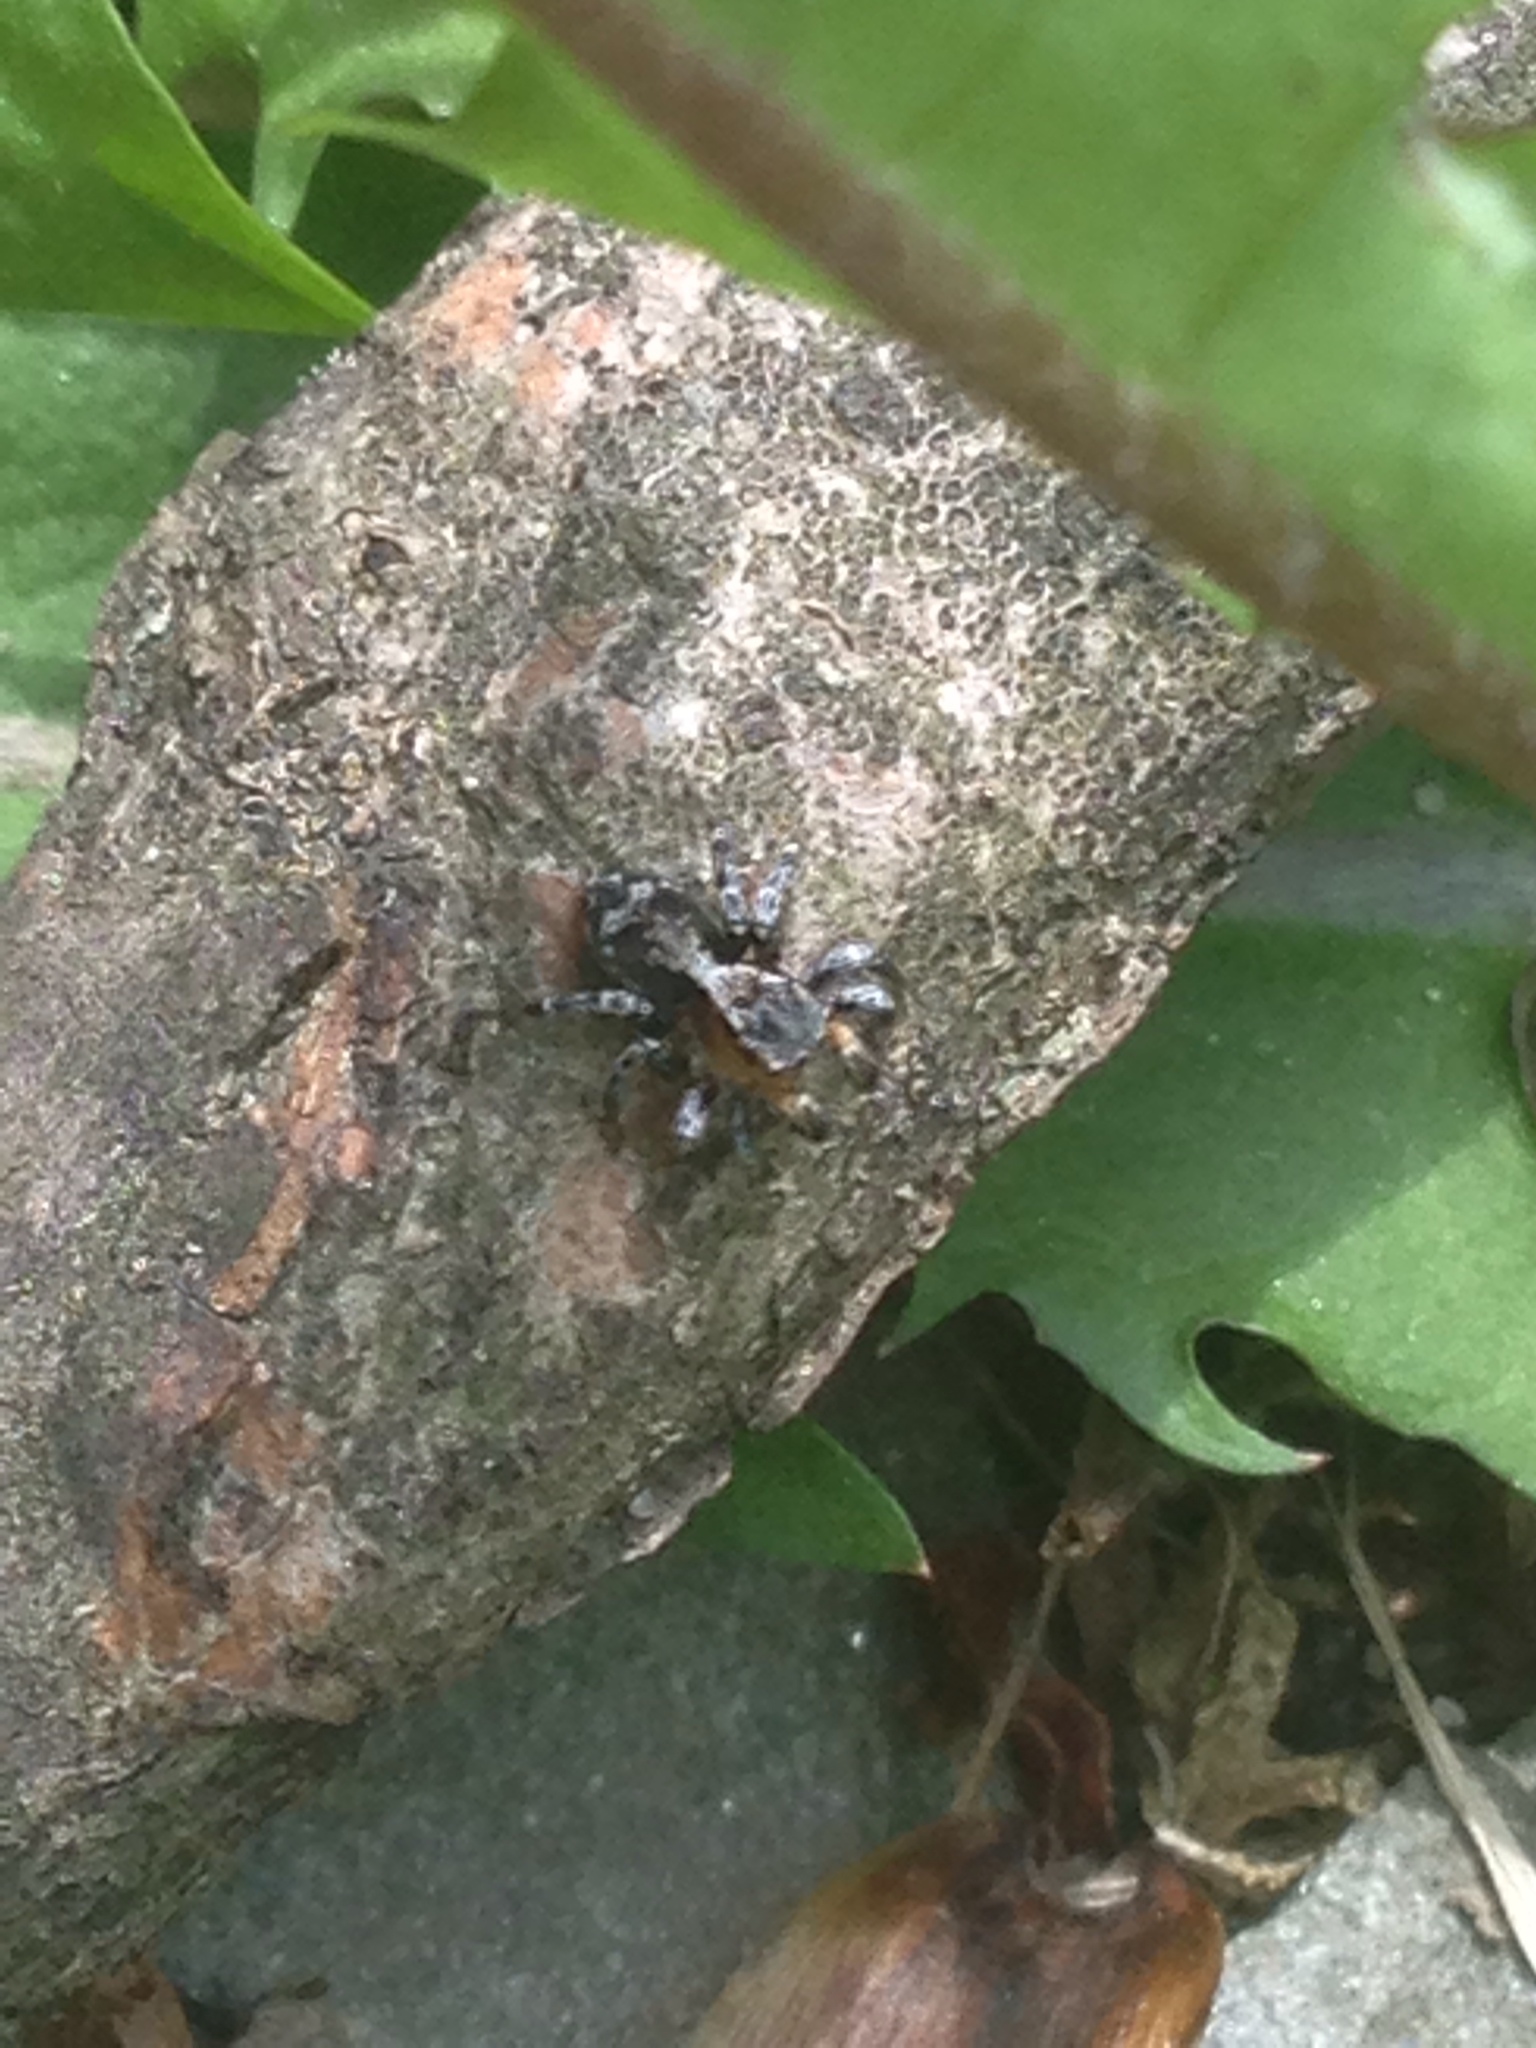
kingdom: Animalia
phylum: Arthropoda
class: Arachnida
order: Araneae
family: Salticidae
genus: Naphrys
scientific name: Naphrys pulex
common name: Flea jumping spider
